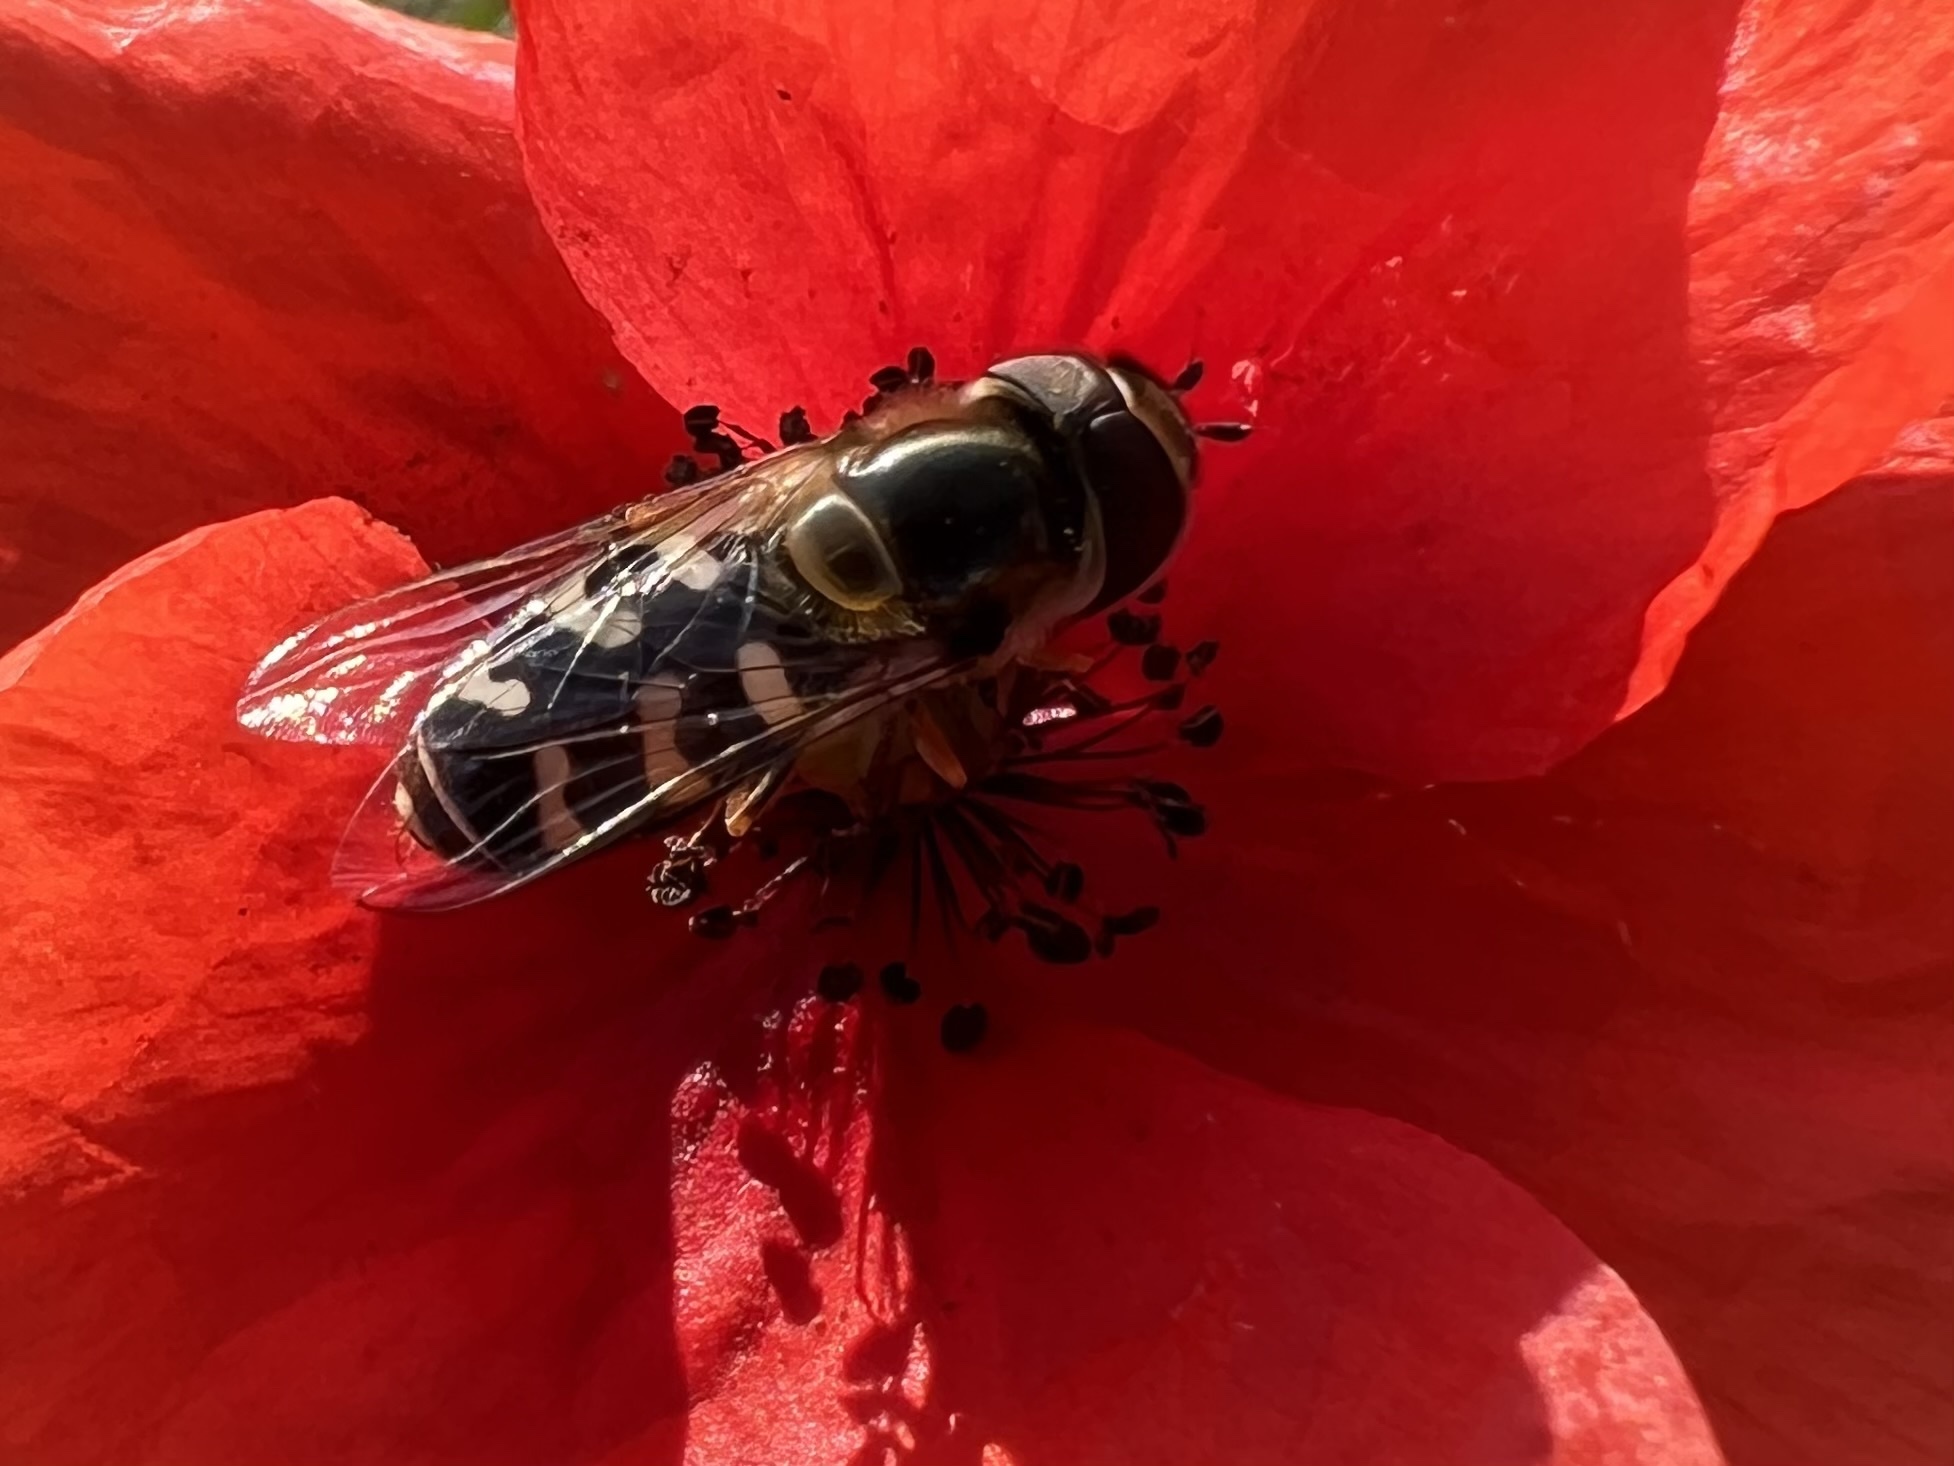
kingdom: Animalia
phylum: Arthropoda
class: Insecta
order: Diptera
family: Syrphidae
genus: Scaeva
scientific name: Scaeva pyrastri
